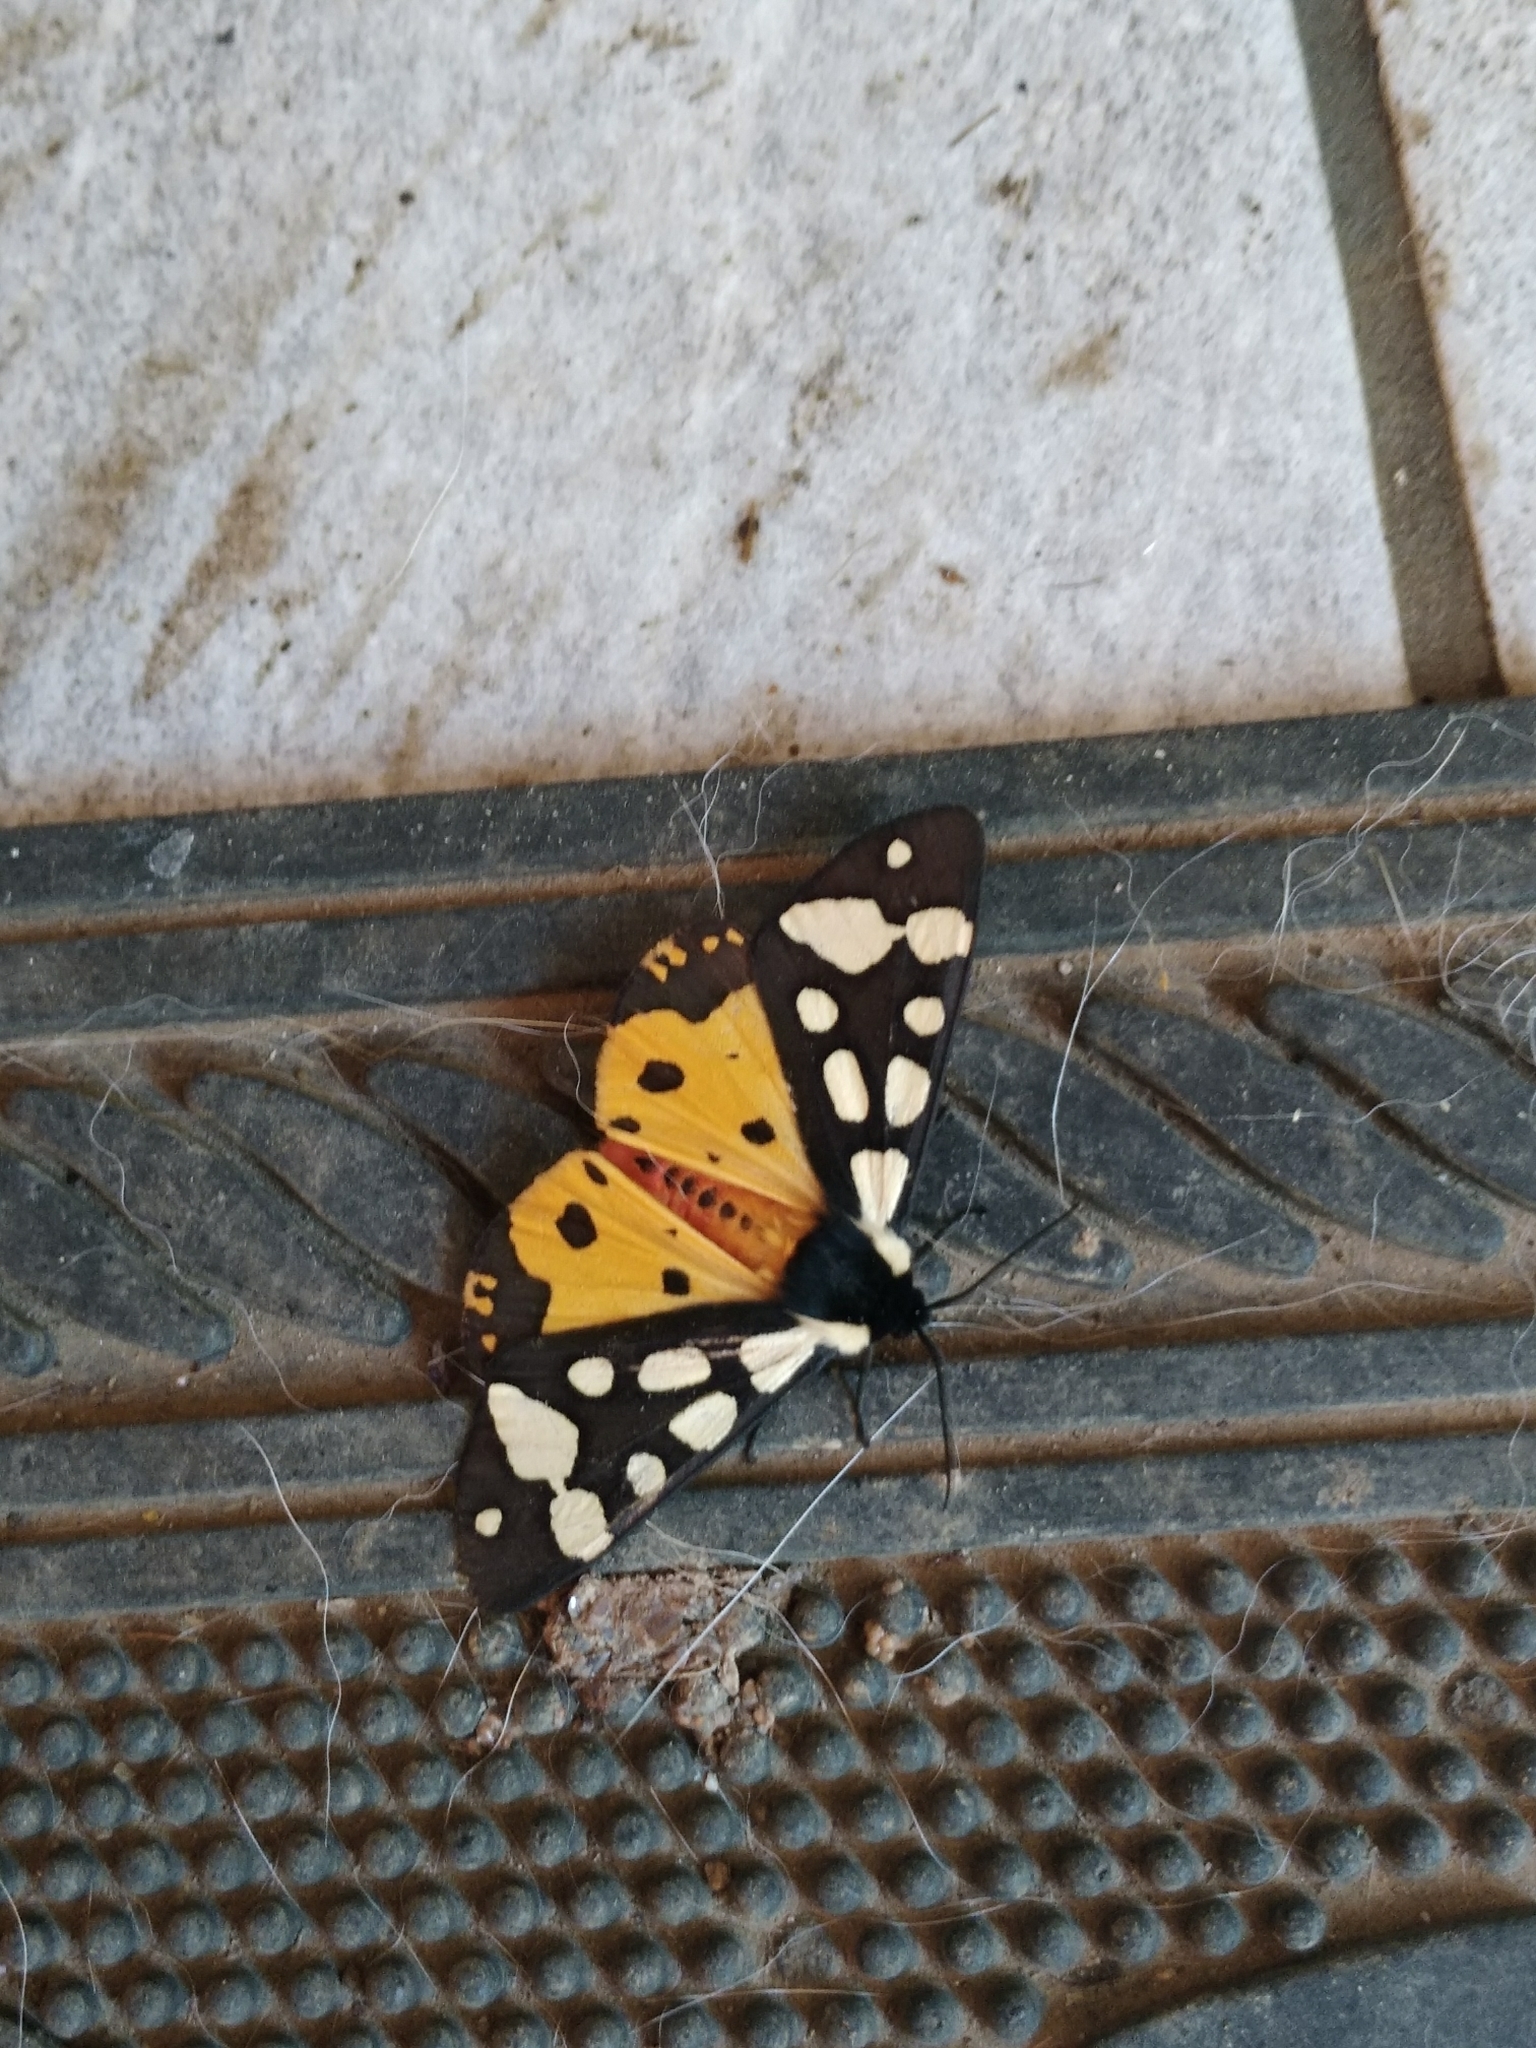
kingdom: Animalia
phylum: Arthropoda
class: Insecta
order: Lepidoptera
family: Erebidae
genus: Epicallia
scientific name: Epicallia villica
